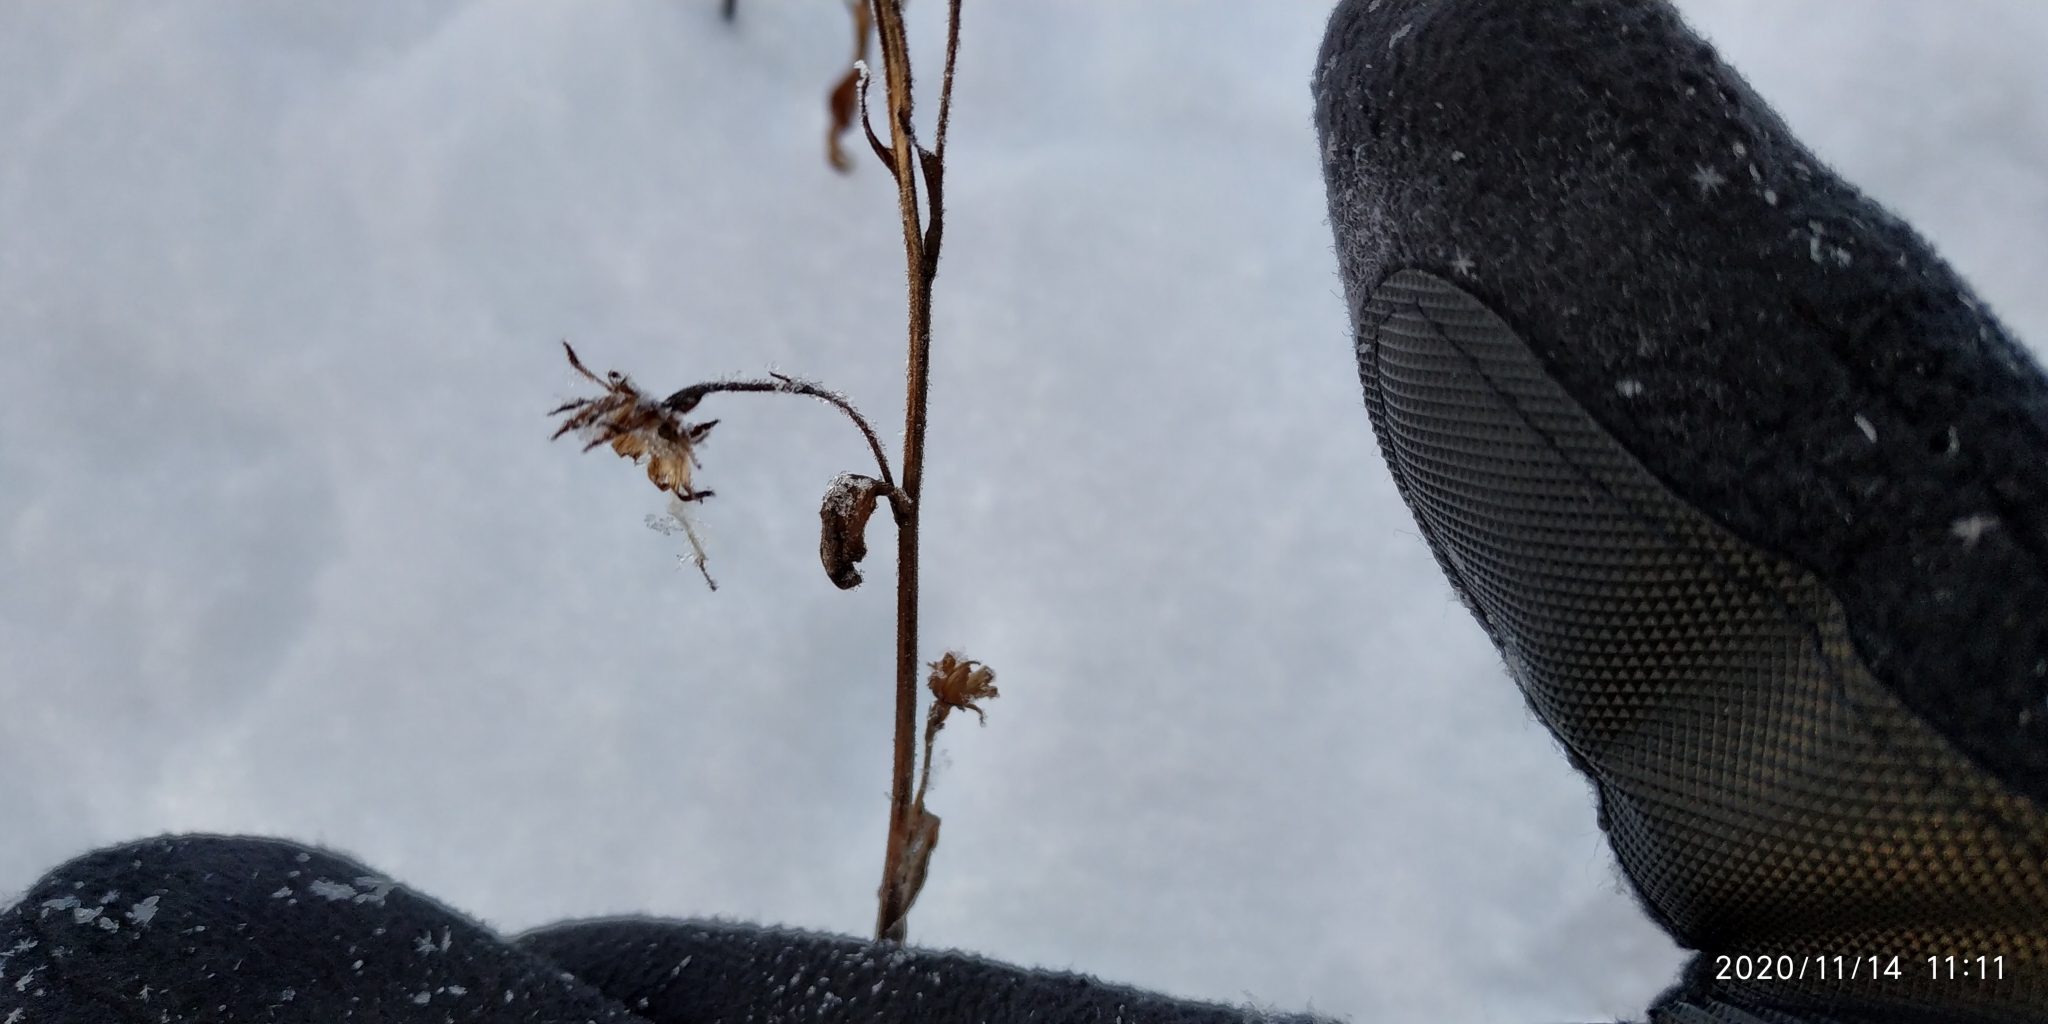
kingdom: Plantae
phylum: Tracheophyta
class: Magnoliopsida
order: Asterales
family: Asteraceae
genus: Solidago
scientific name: Solidago virgaurea
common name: Goldenrod
